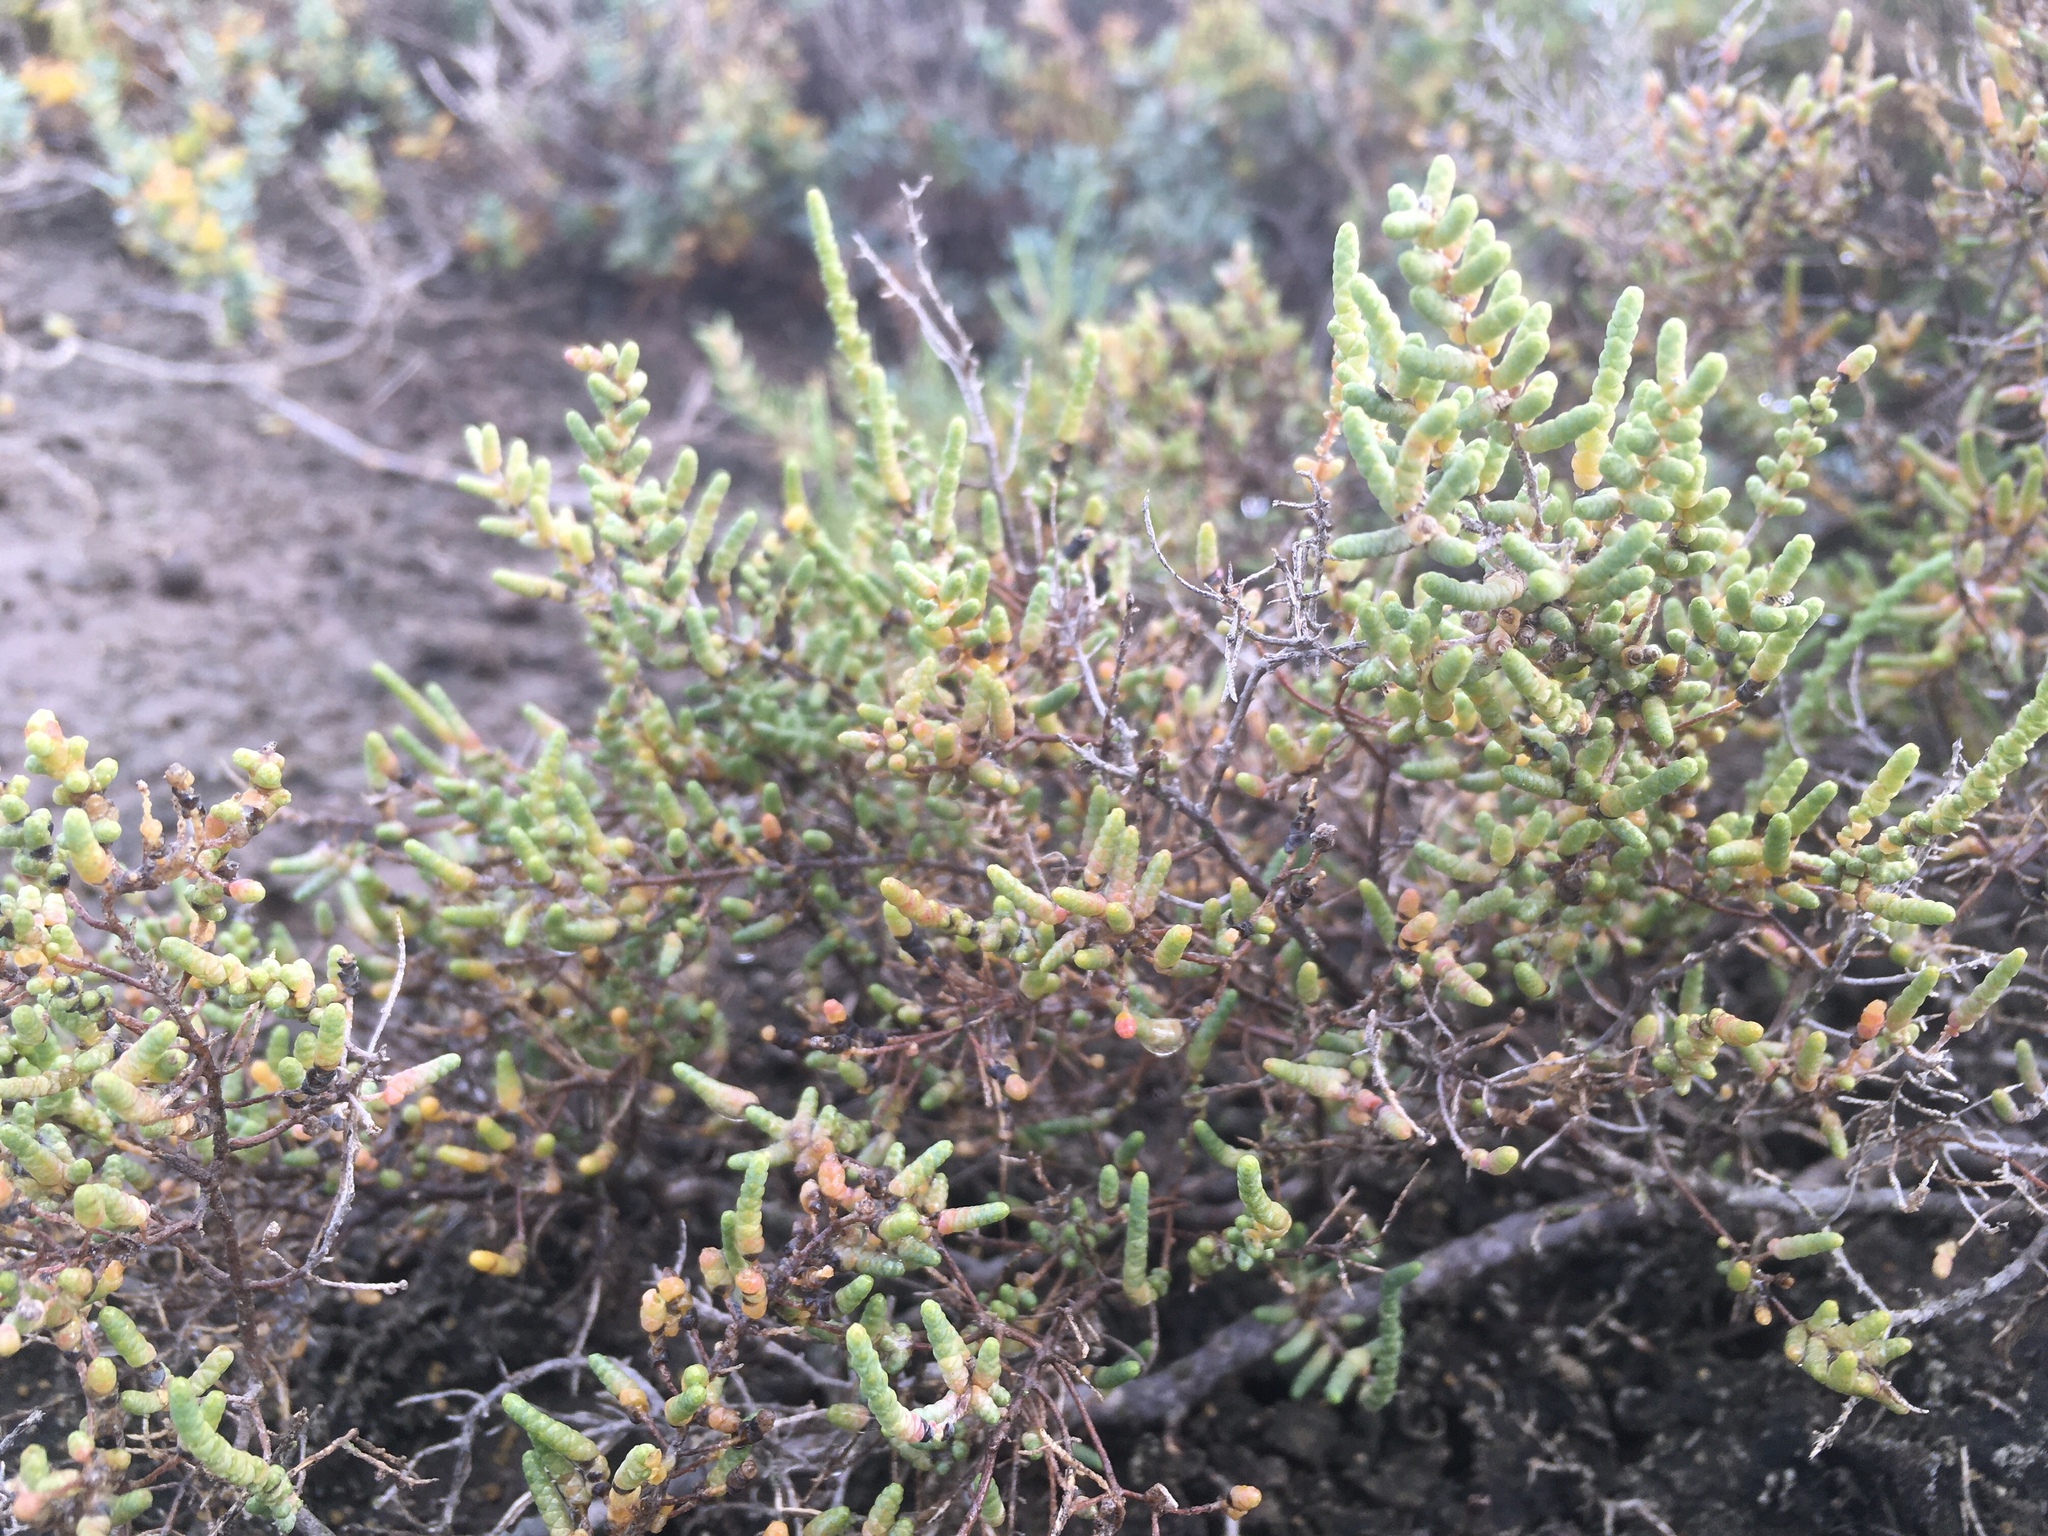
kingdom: Plantae
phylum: Tracheophyta
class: Magnoliopsida
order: Caryophyllales
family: Amaranthaceae
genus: Allenrolfea
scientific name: Allenrolfea patagonica
